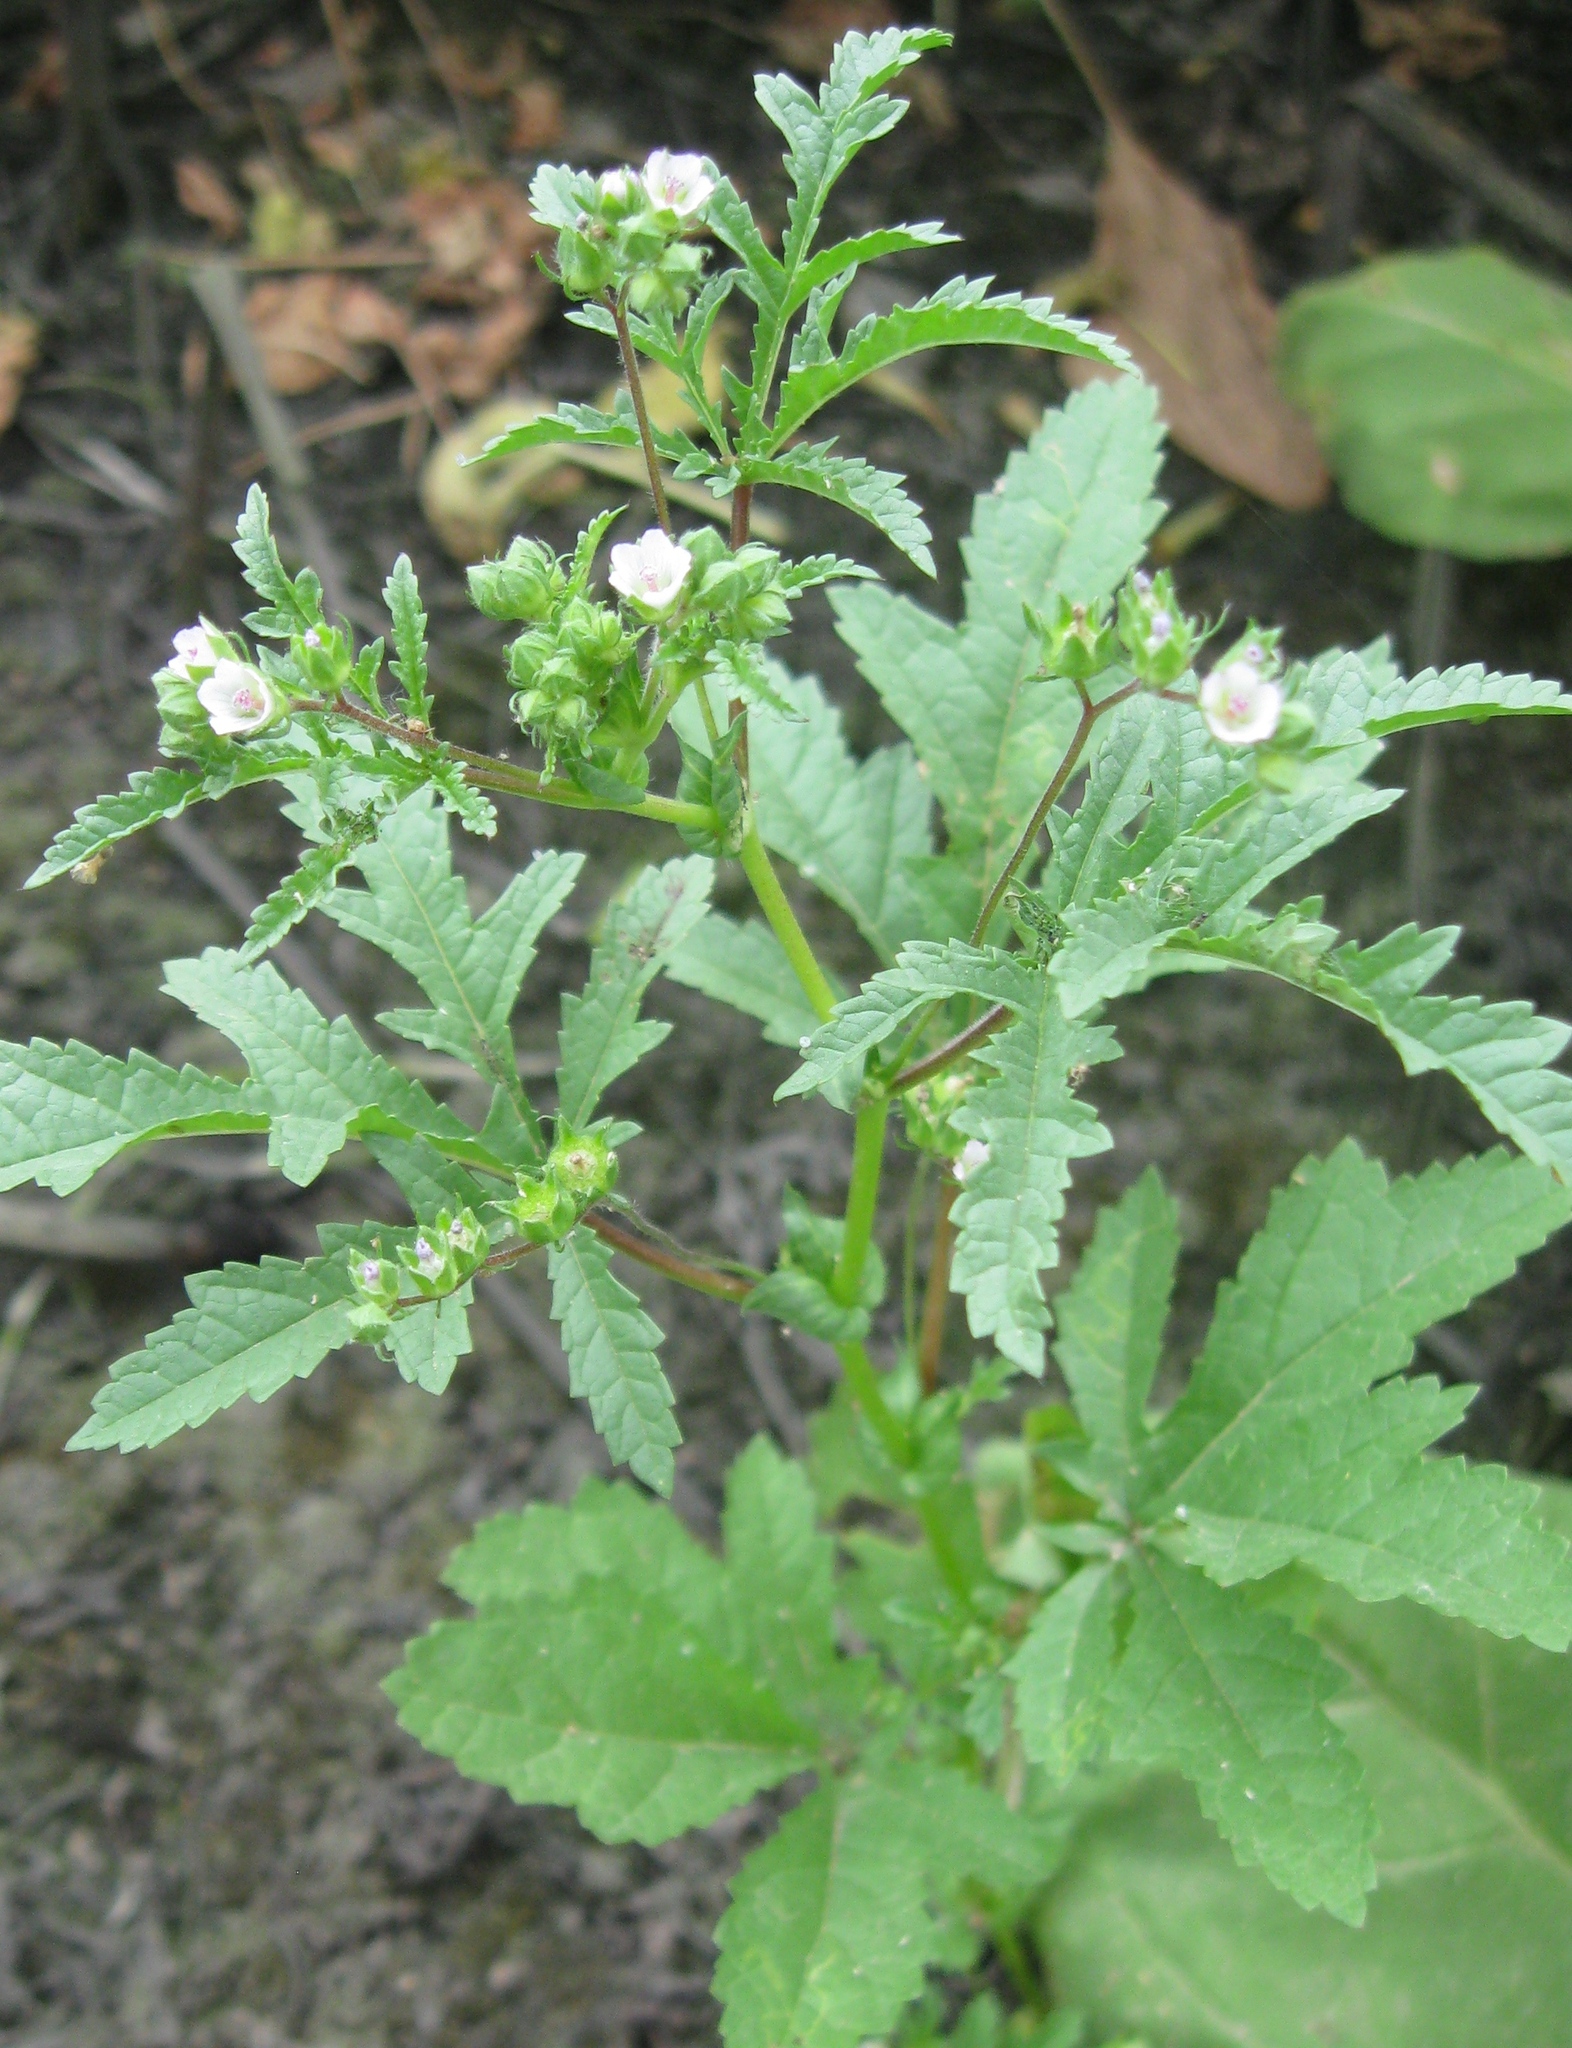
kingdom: Plantae
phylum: Tracheophyta
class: Magnoliopsida
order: Malvales
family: Malvaceae
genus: Fuertesimalva
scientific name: Fuertesimalva chilensis
